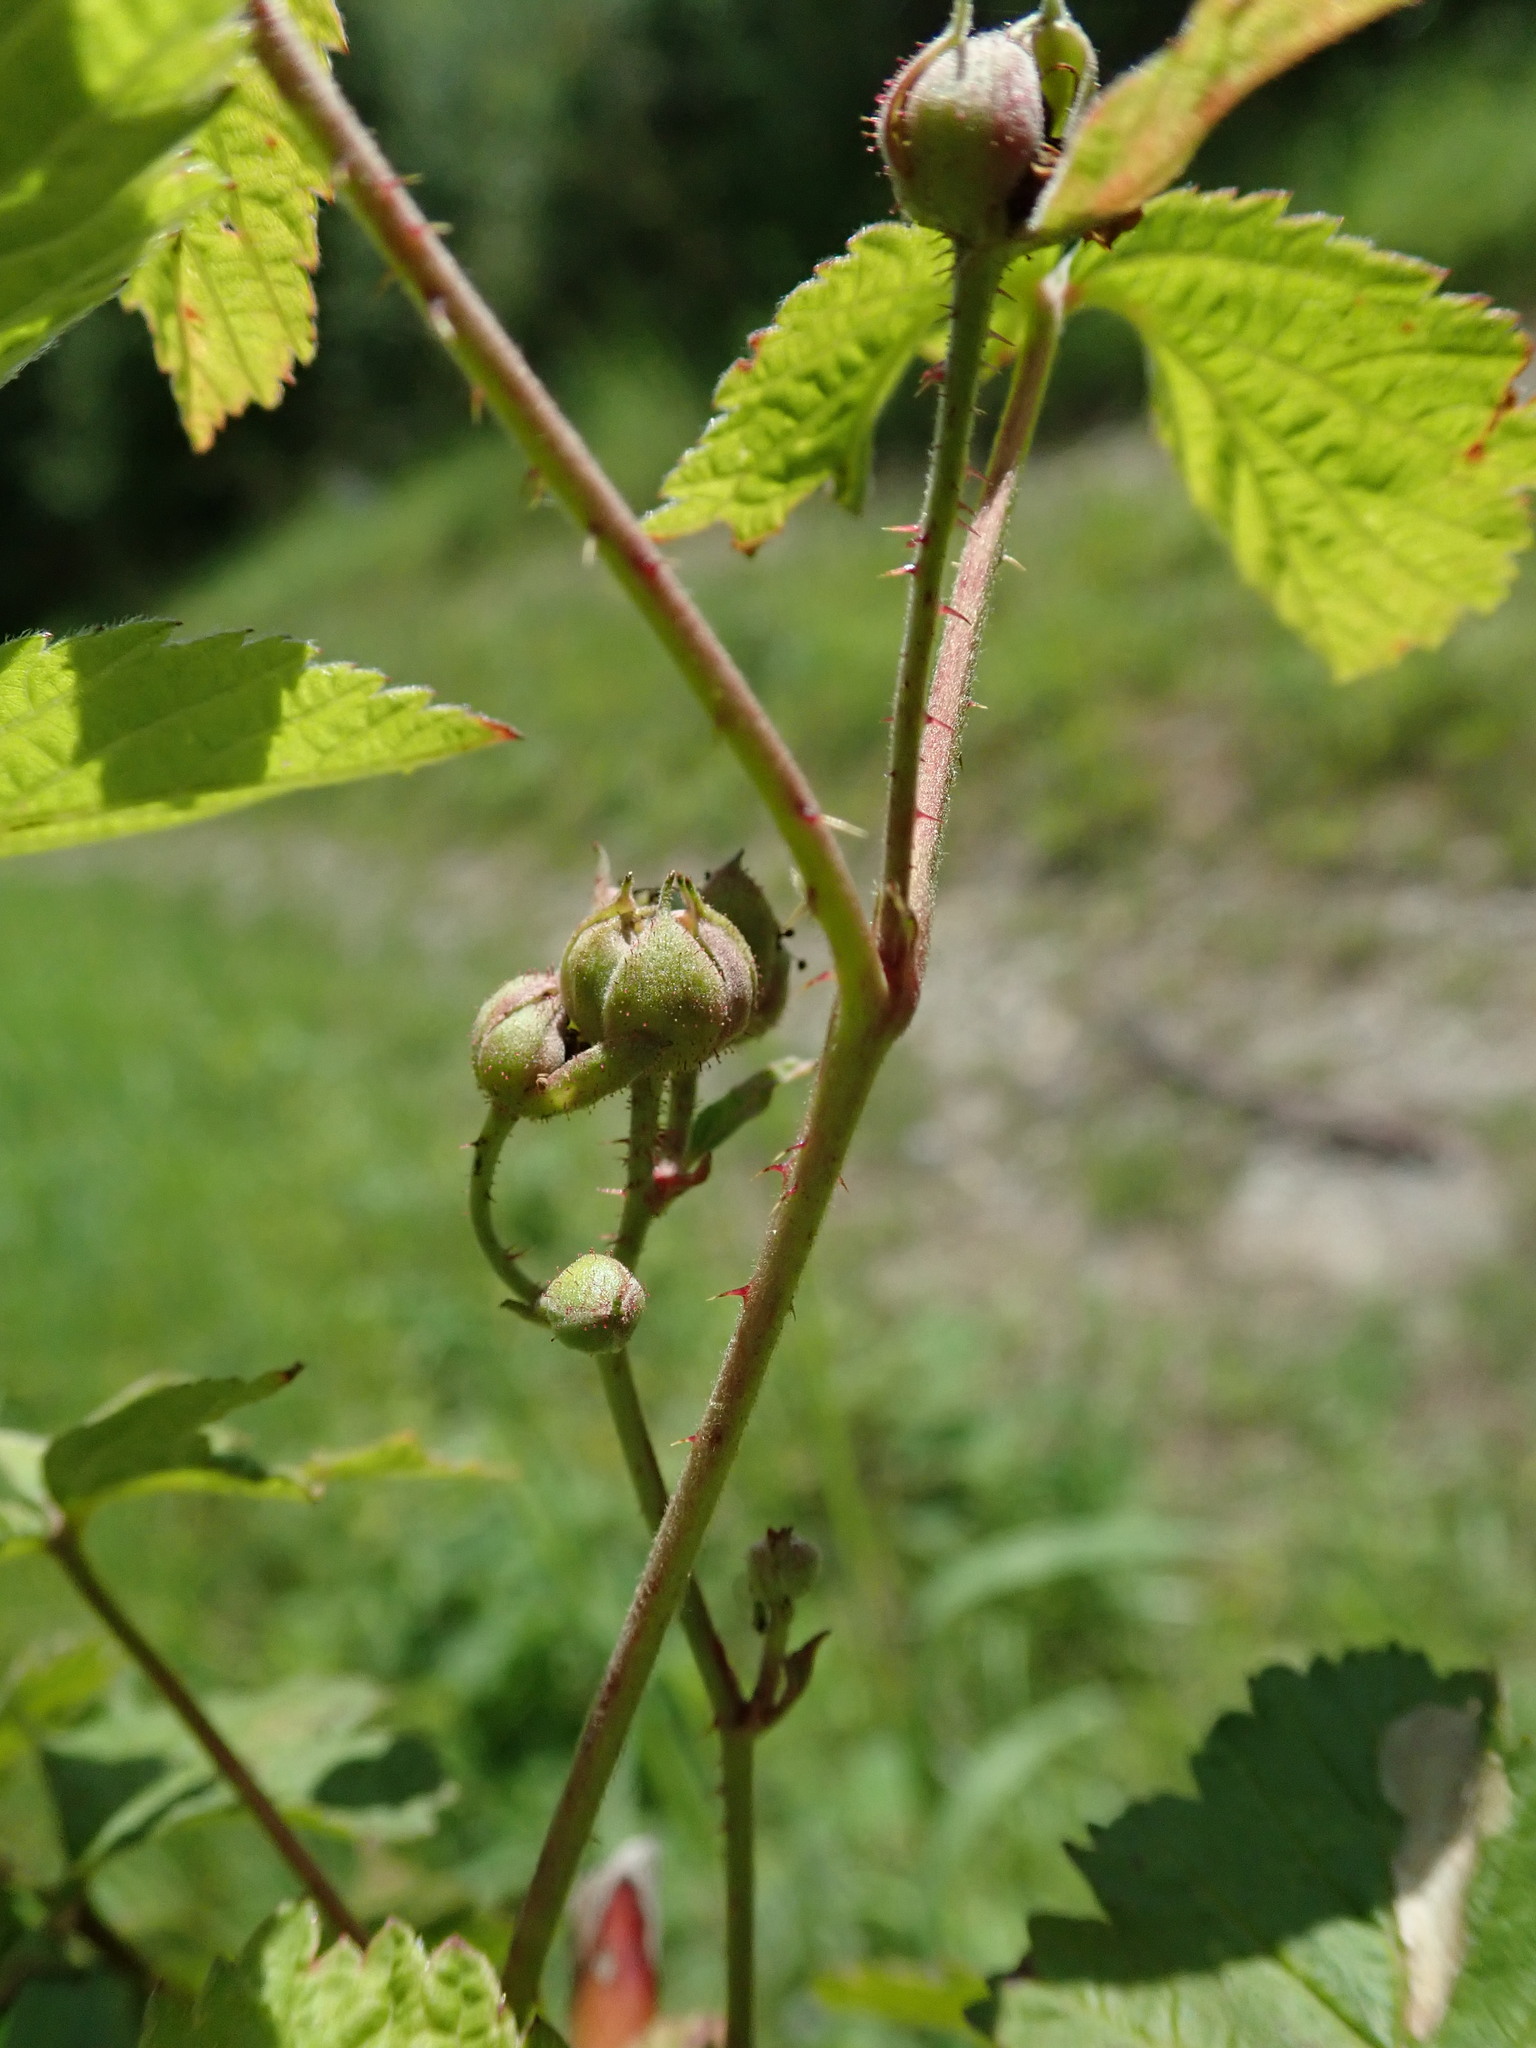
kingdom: Plantae
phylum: Tracheophyta
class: Magnoliopsida
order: Rosales
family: Rosaceae
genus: Rubus
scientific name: Rubus caesius
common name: Dewberry
